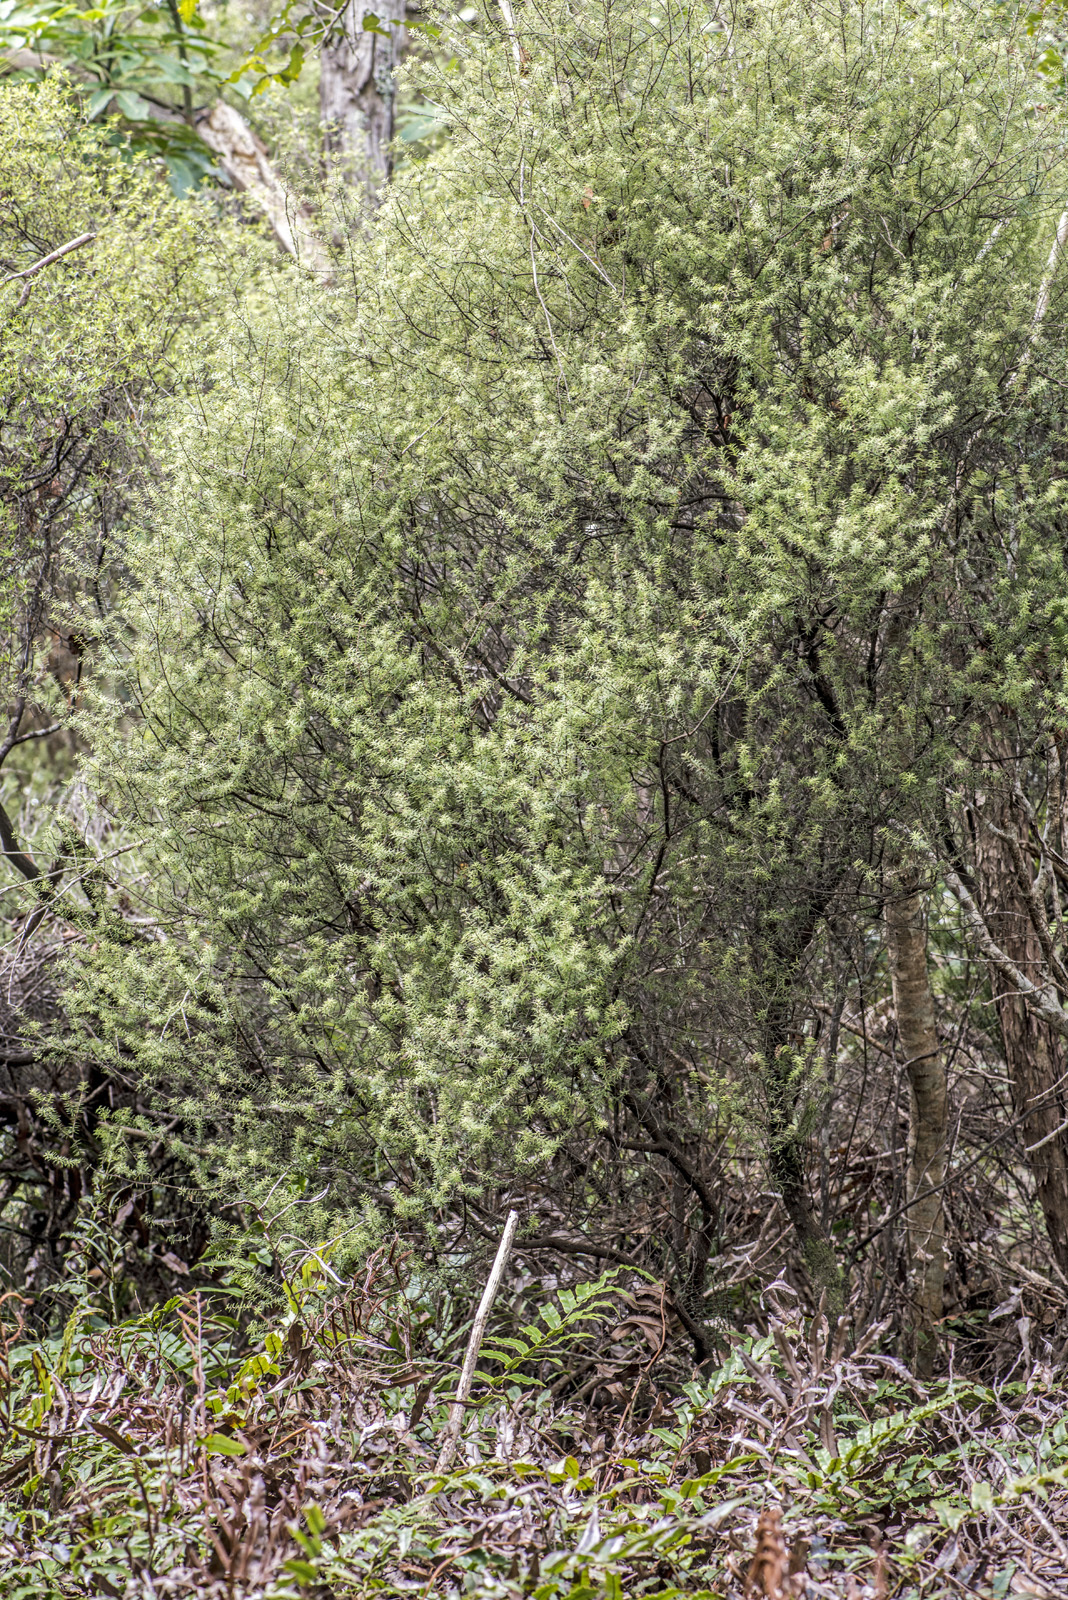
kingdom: Plantae
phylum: Tracheophyta
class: Magnoliopsida
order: Ericales
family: Ericaceae
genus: Leptecophylla
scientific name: Leptecophylla juniperina
